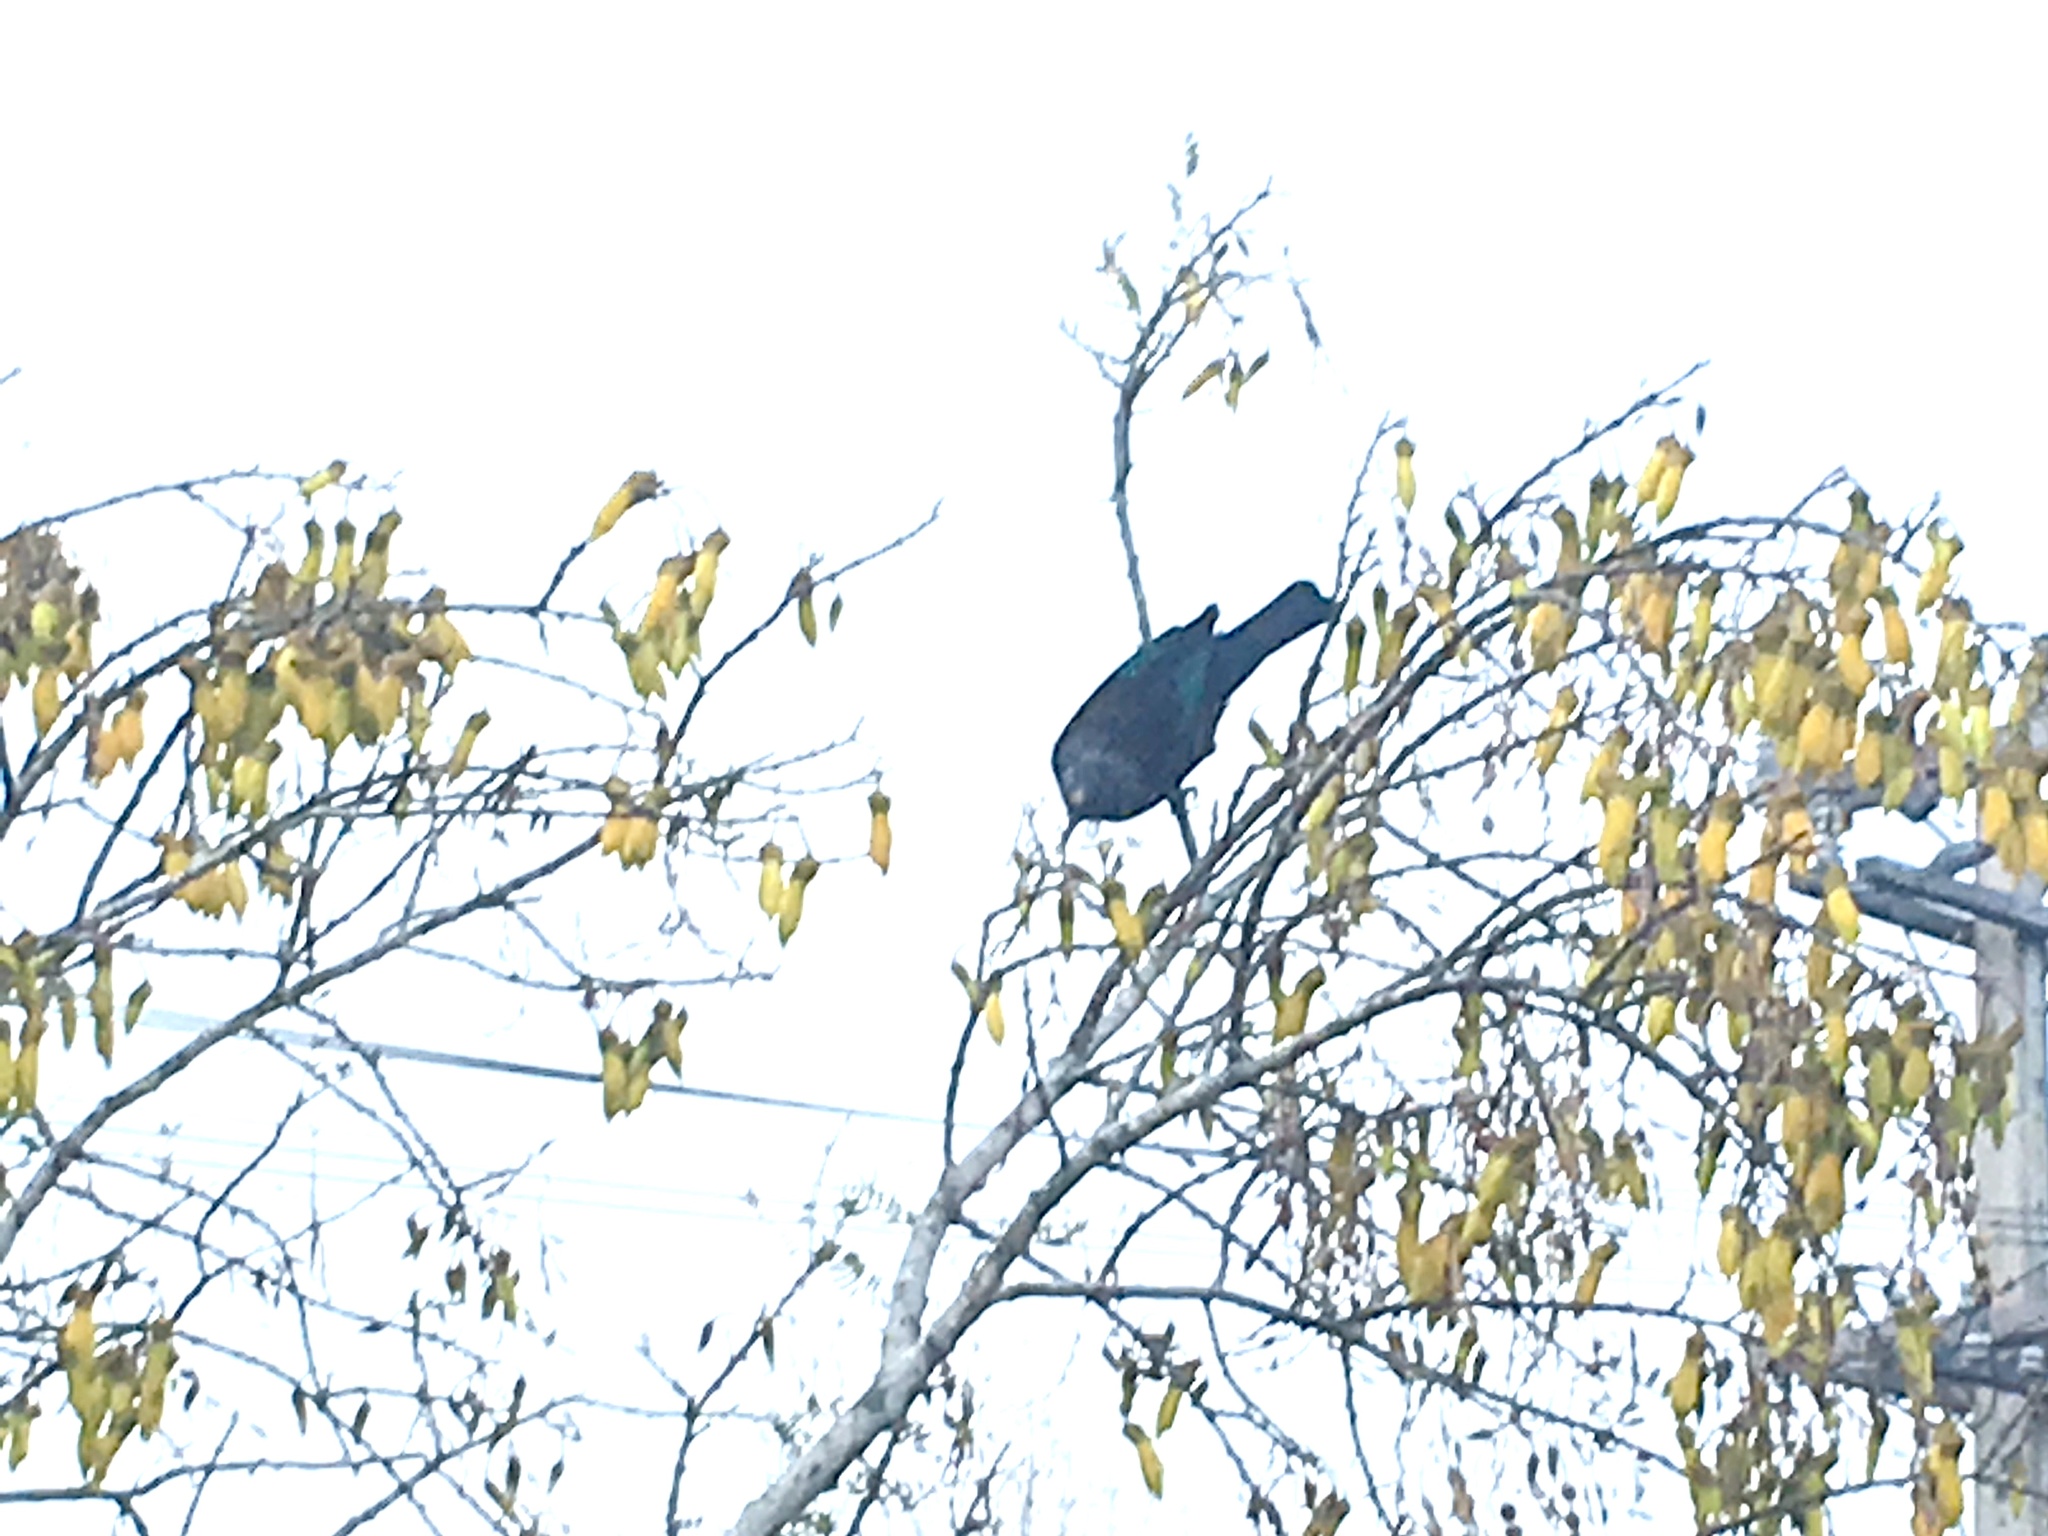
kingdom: Animalia
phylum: Chordata
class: Aves
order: Passeriformes
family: Meliphagidae
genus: Prosthemadera
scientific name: Prosthemadera novaeseelandiae
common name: Tui
